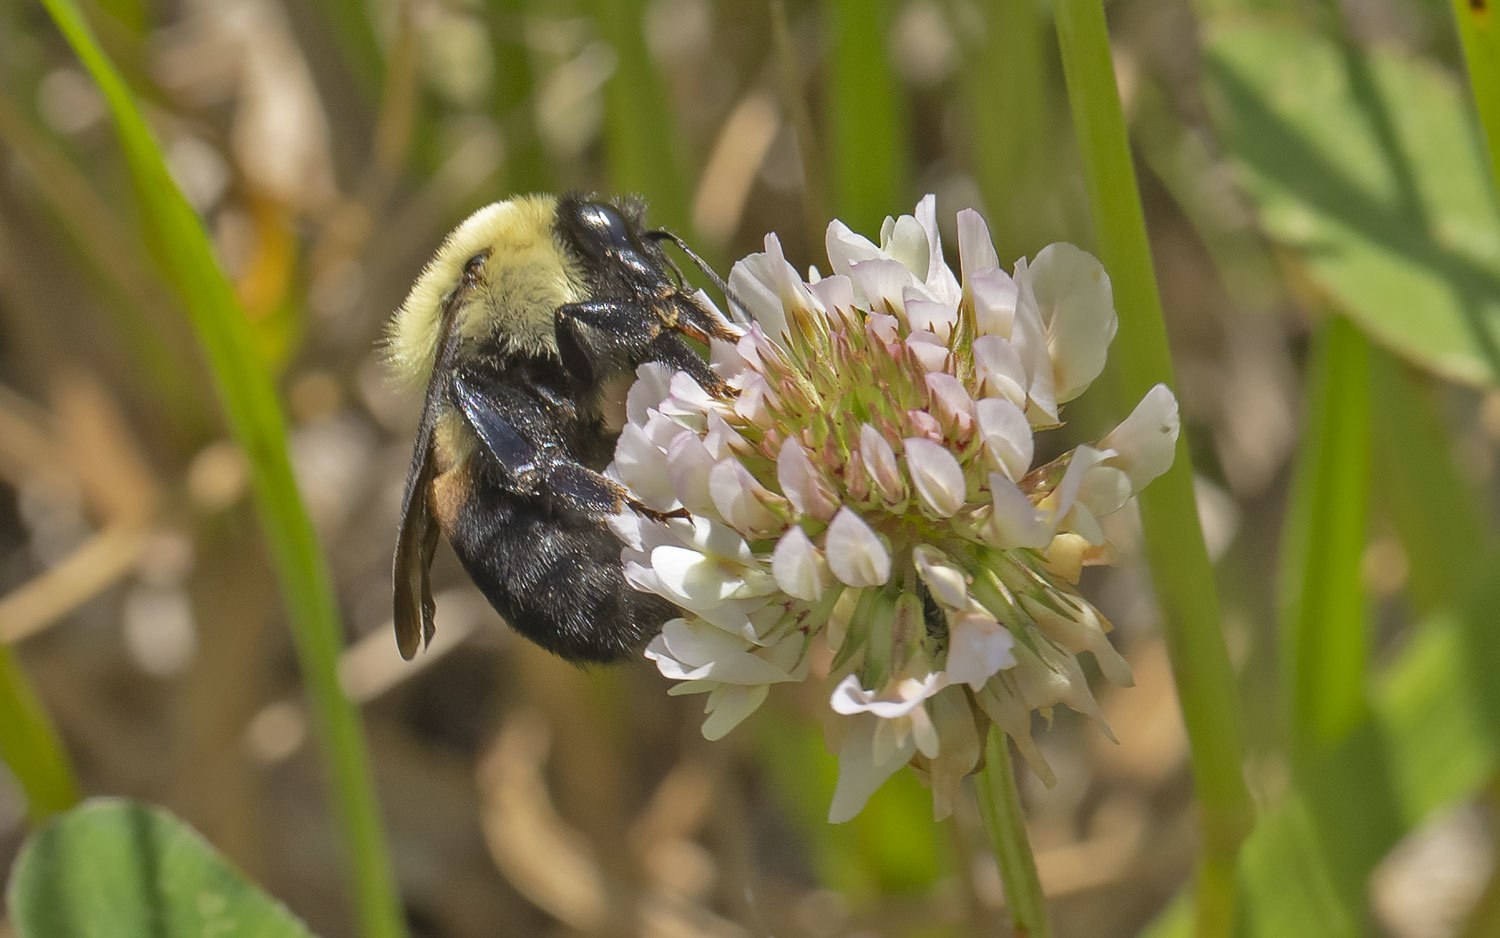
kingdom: Animalia
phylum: Arthropoda
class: Insecta
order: Hymenoptera
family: Apidae
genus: Bombus
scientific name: Bombus griseocollis
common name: Brown-belted bumble bee
